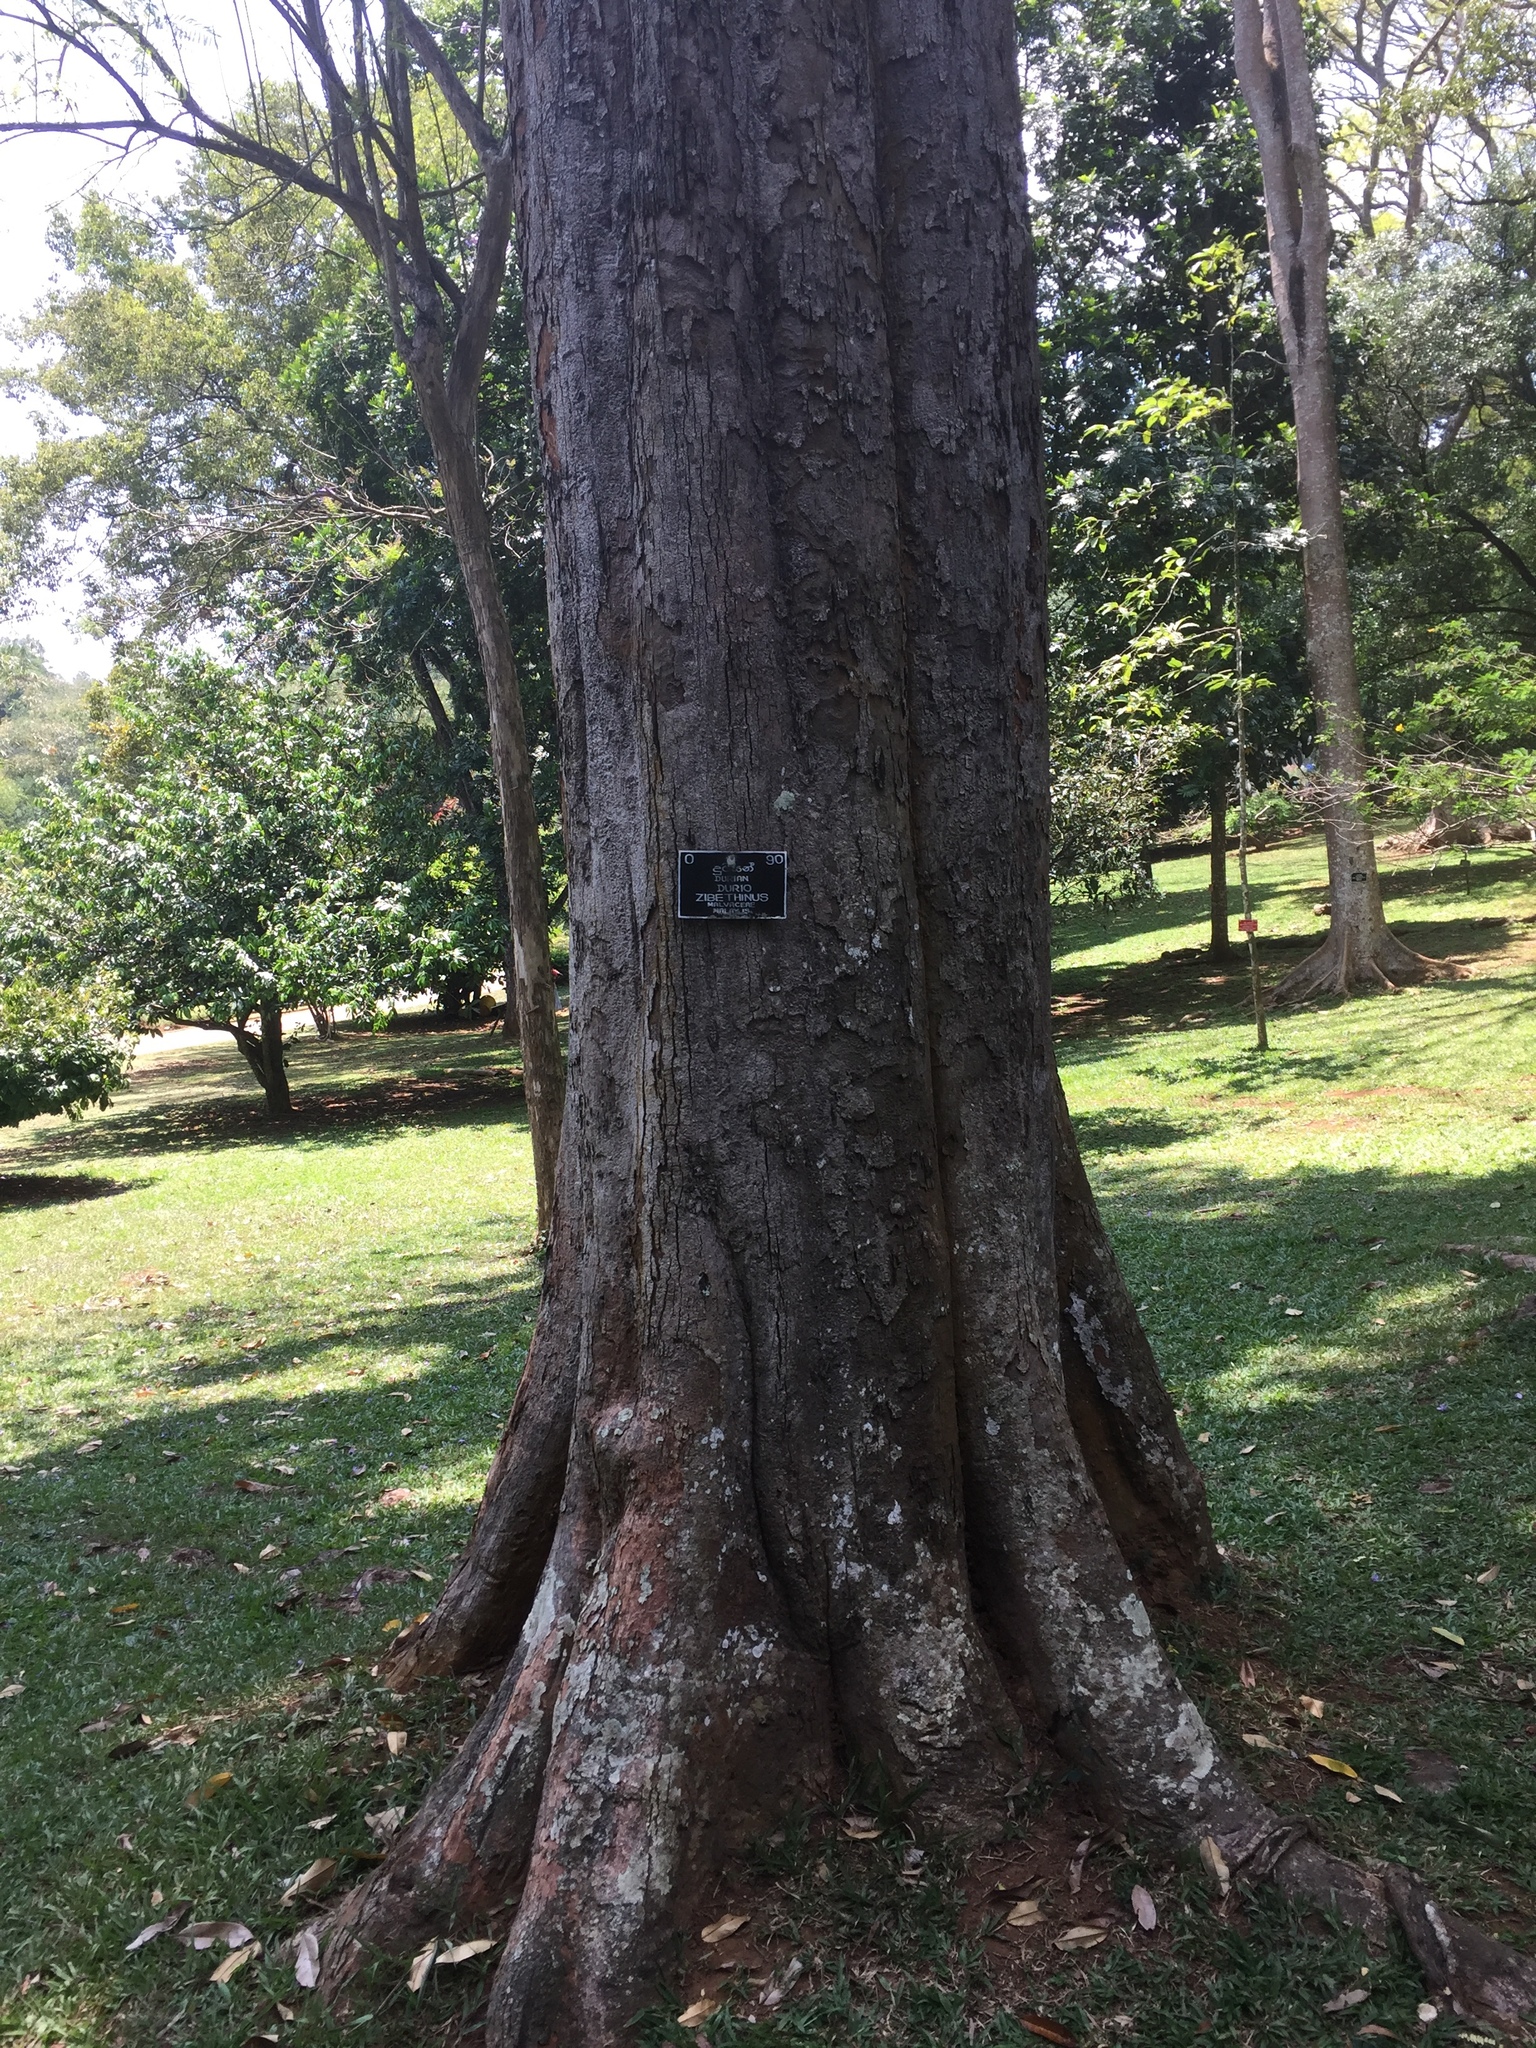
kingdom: Animalia
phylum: Chordata
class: Mammalia
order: Rodentia
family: Sciuridae
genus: Funambulus
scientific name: Funambulus palmarum
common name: Indian palm squirrel
